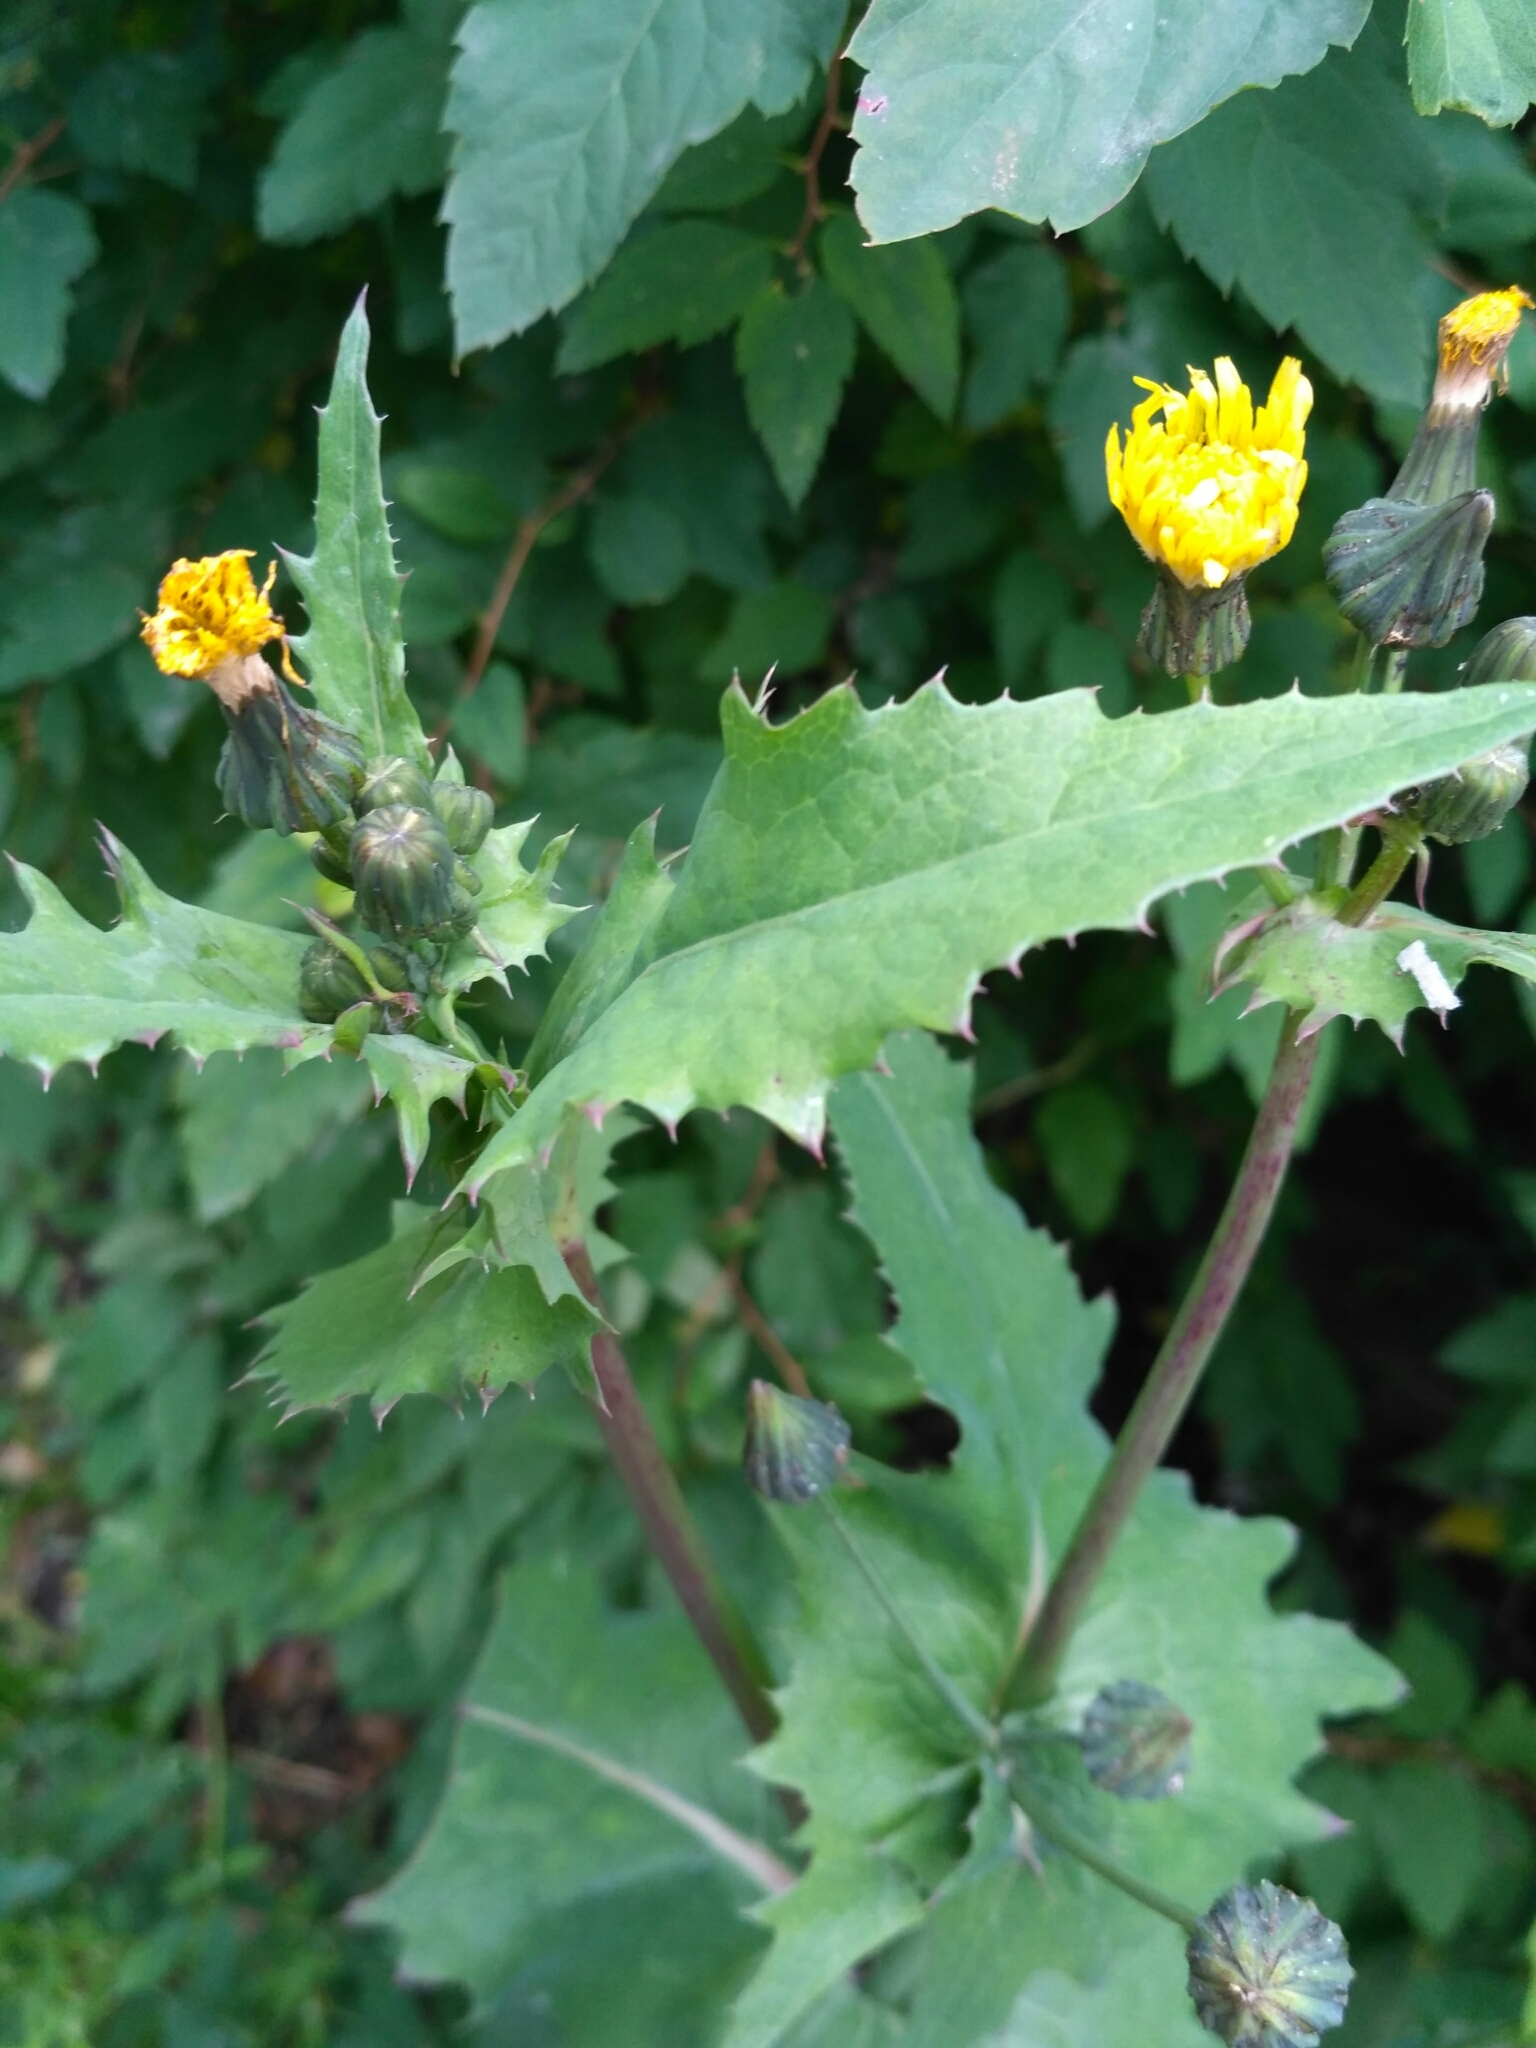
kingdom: Plantae
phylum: Tracheophyta
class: Magnoliopsida
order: Asterales
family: Asteraceae
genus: Sonchus
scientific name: Sonchus oleraceus
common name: Common sowthistle
